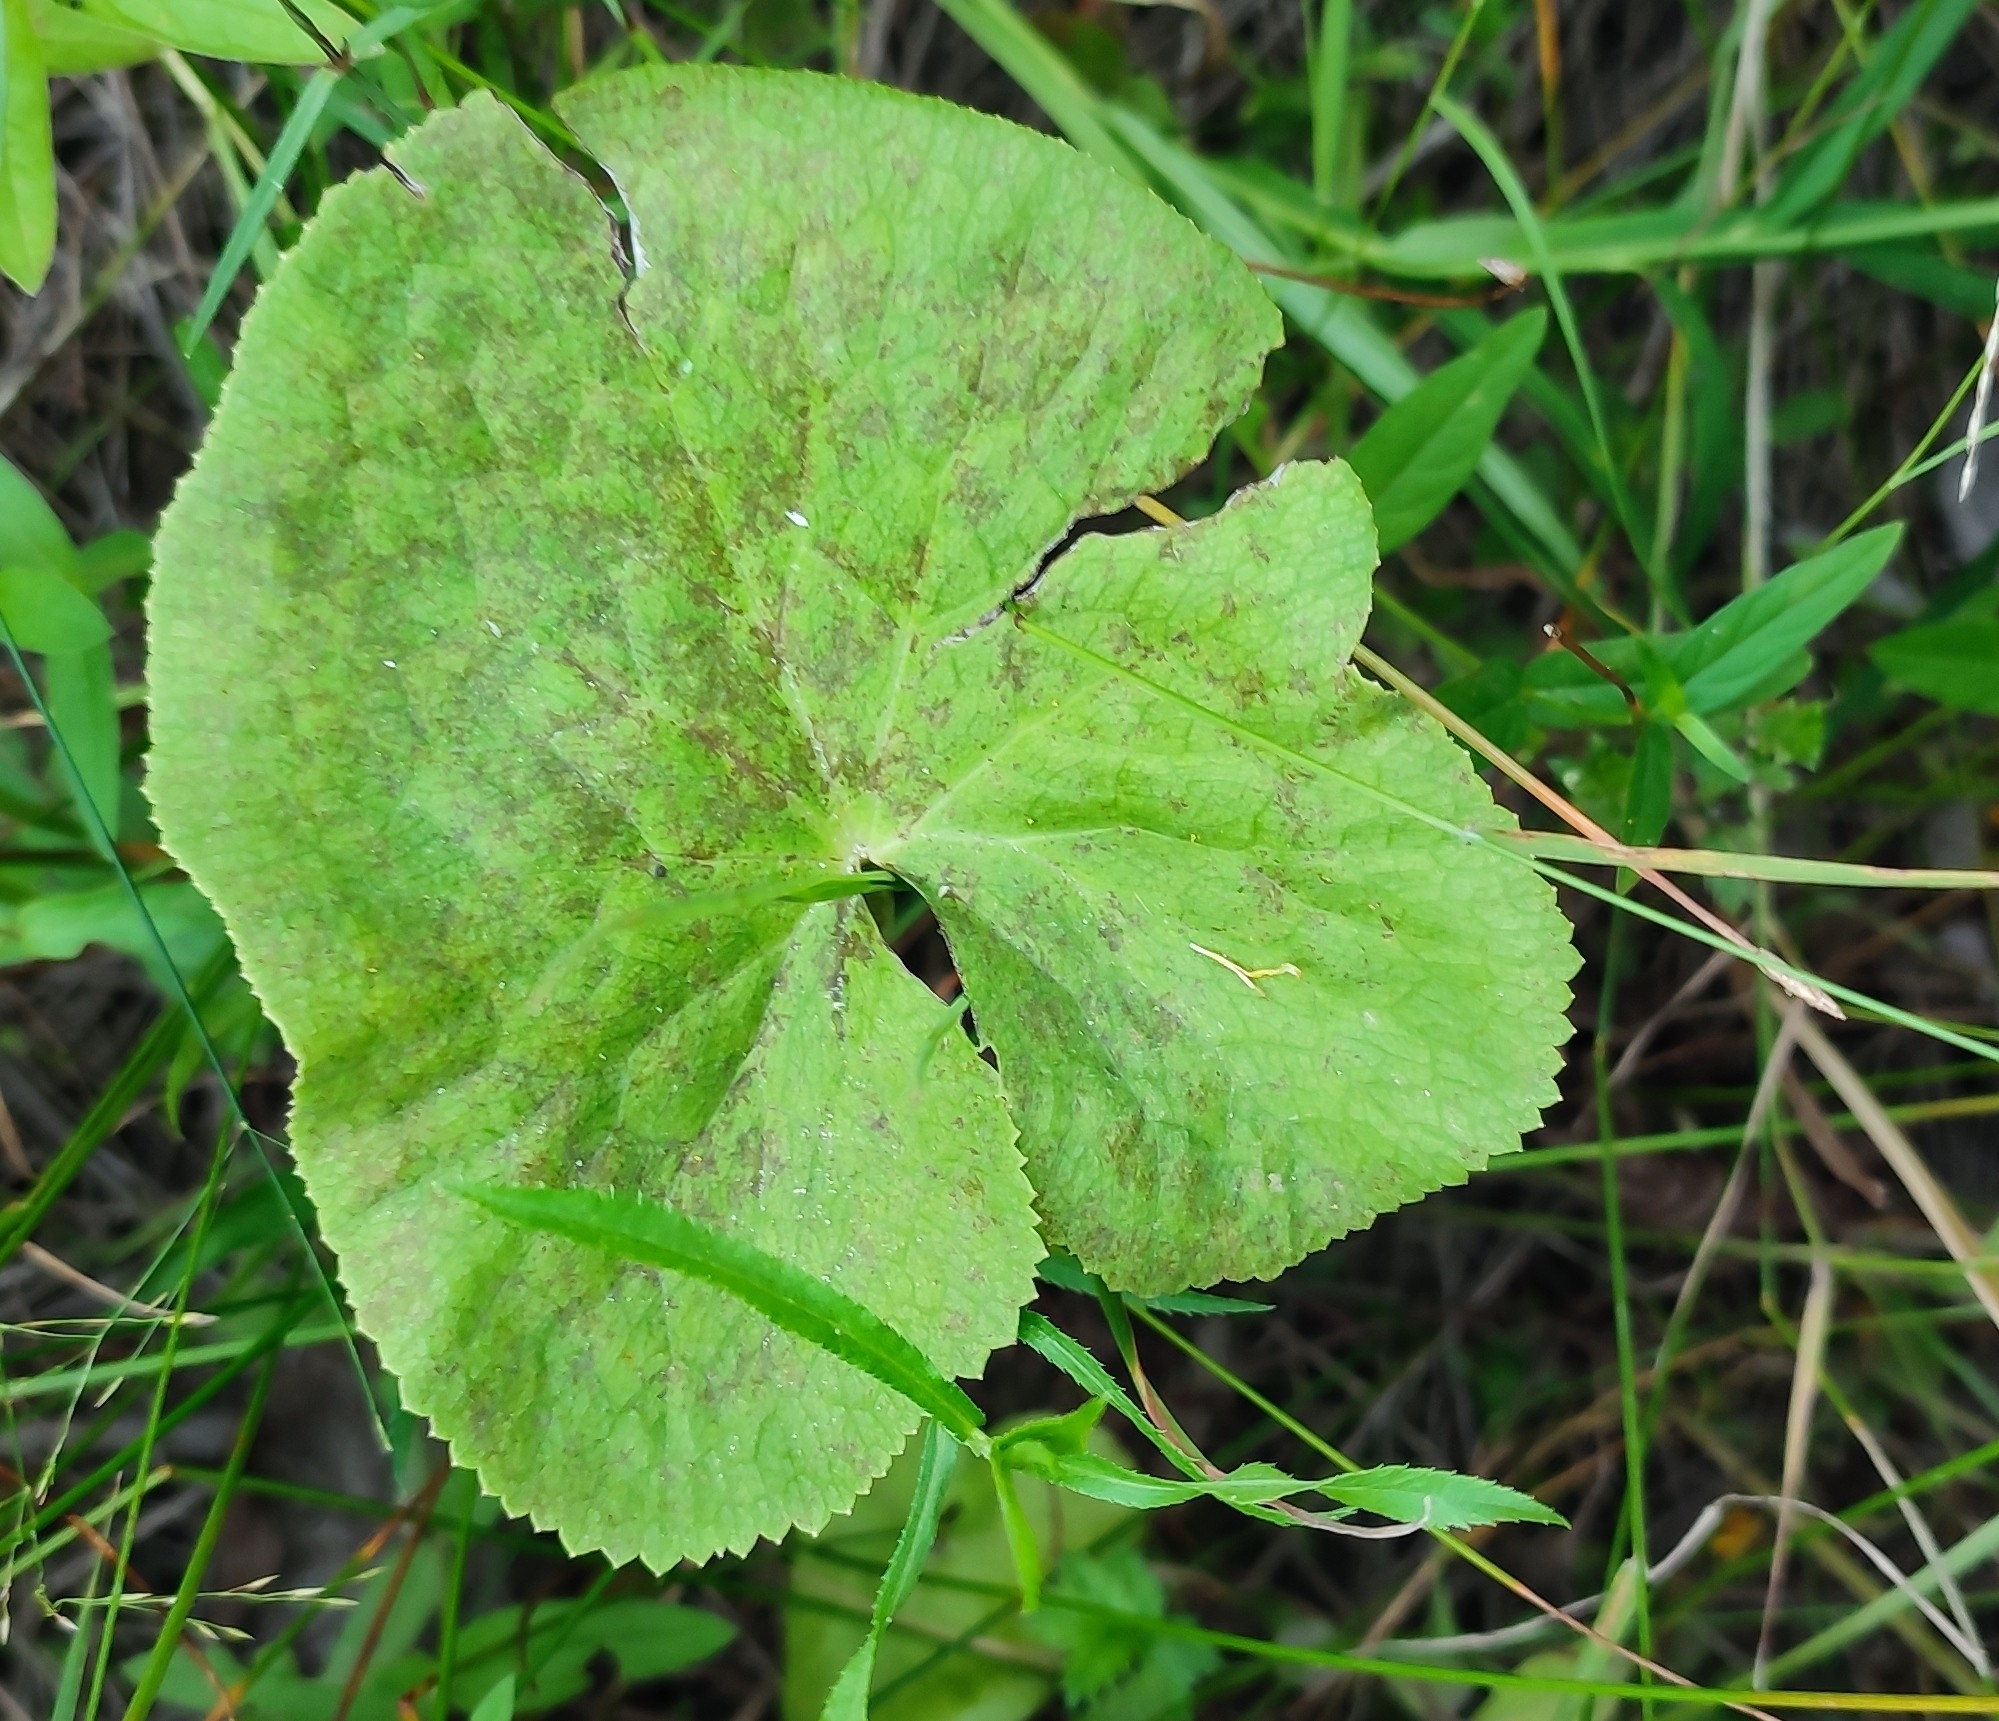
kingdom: Plantae
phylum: Tracheophyta
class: Magnoliopsida
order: Ranunculales
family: Ranunculaceae
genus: Caltha
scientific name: Caltha palustris
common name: Marsh marigold
